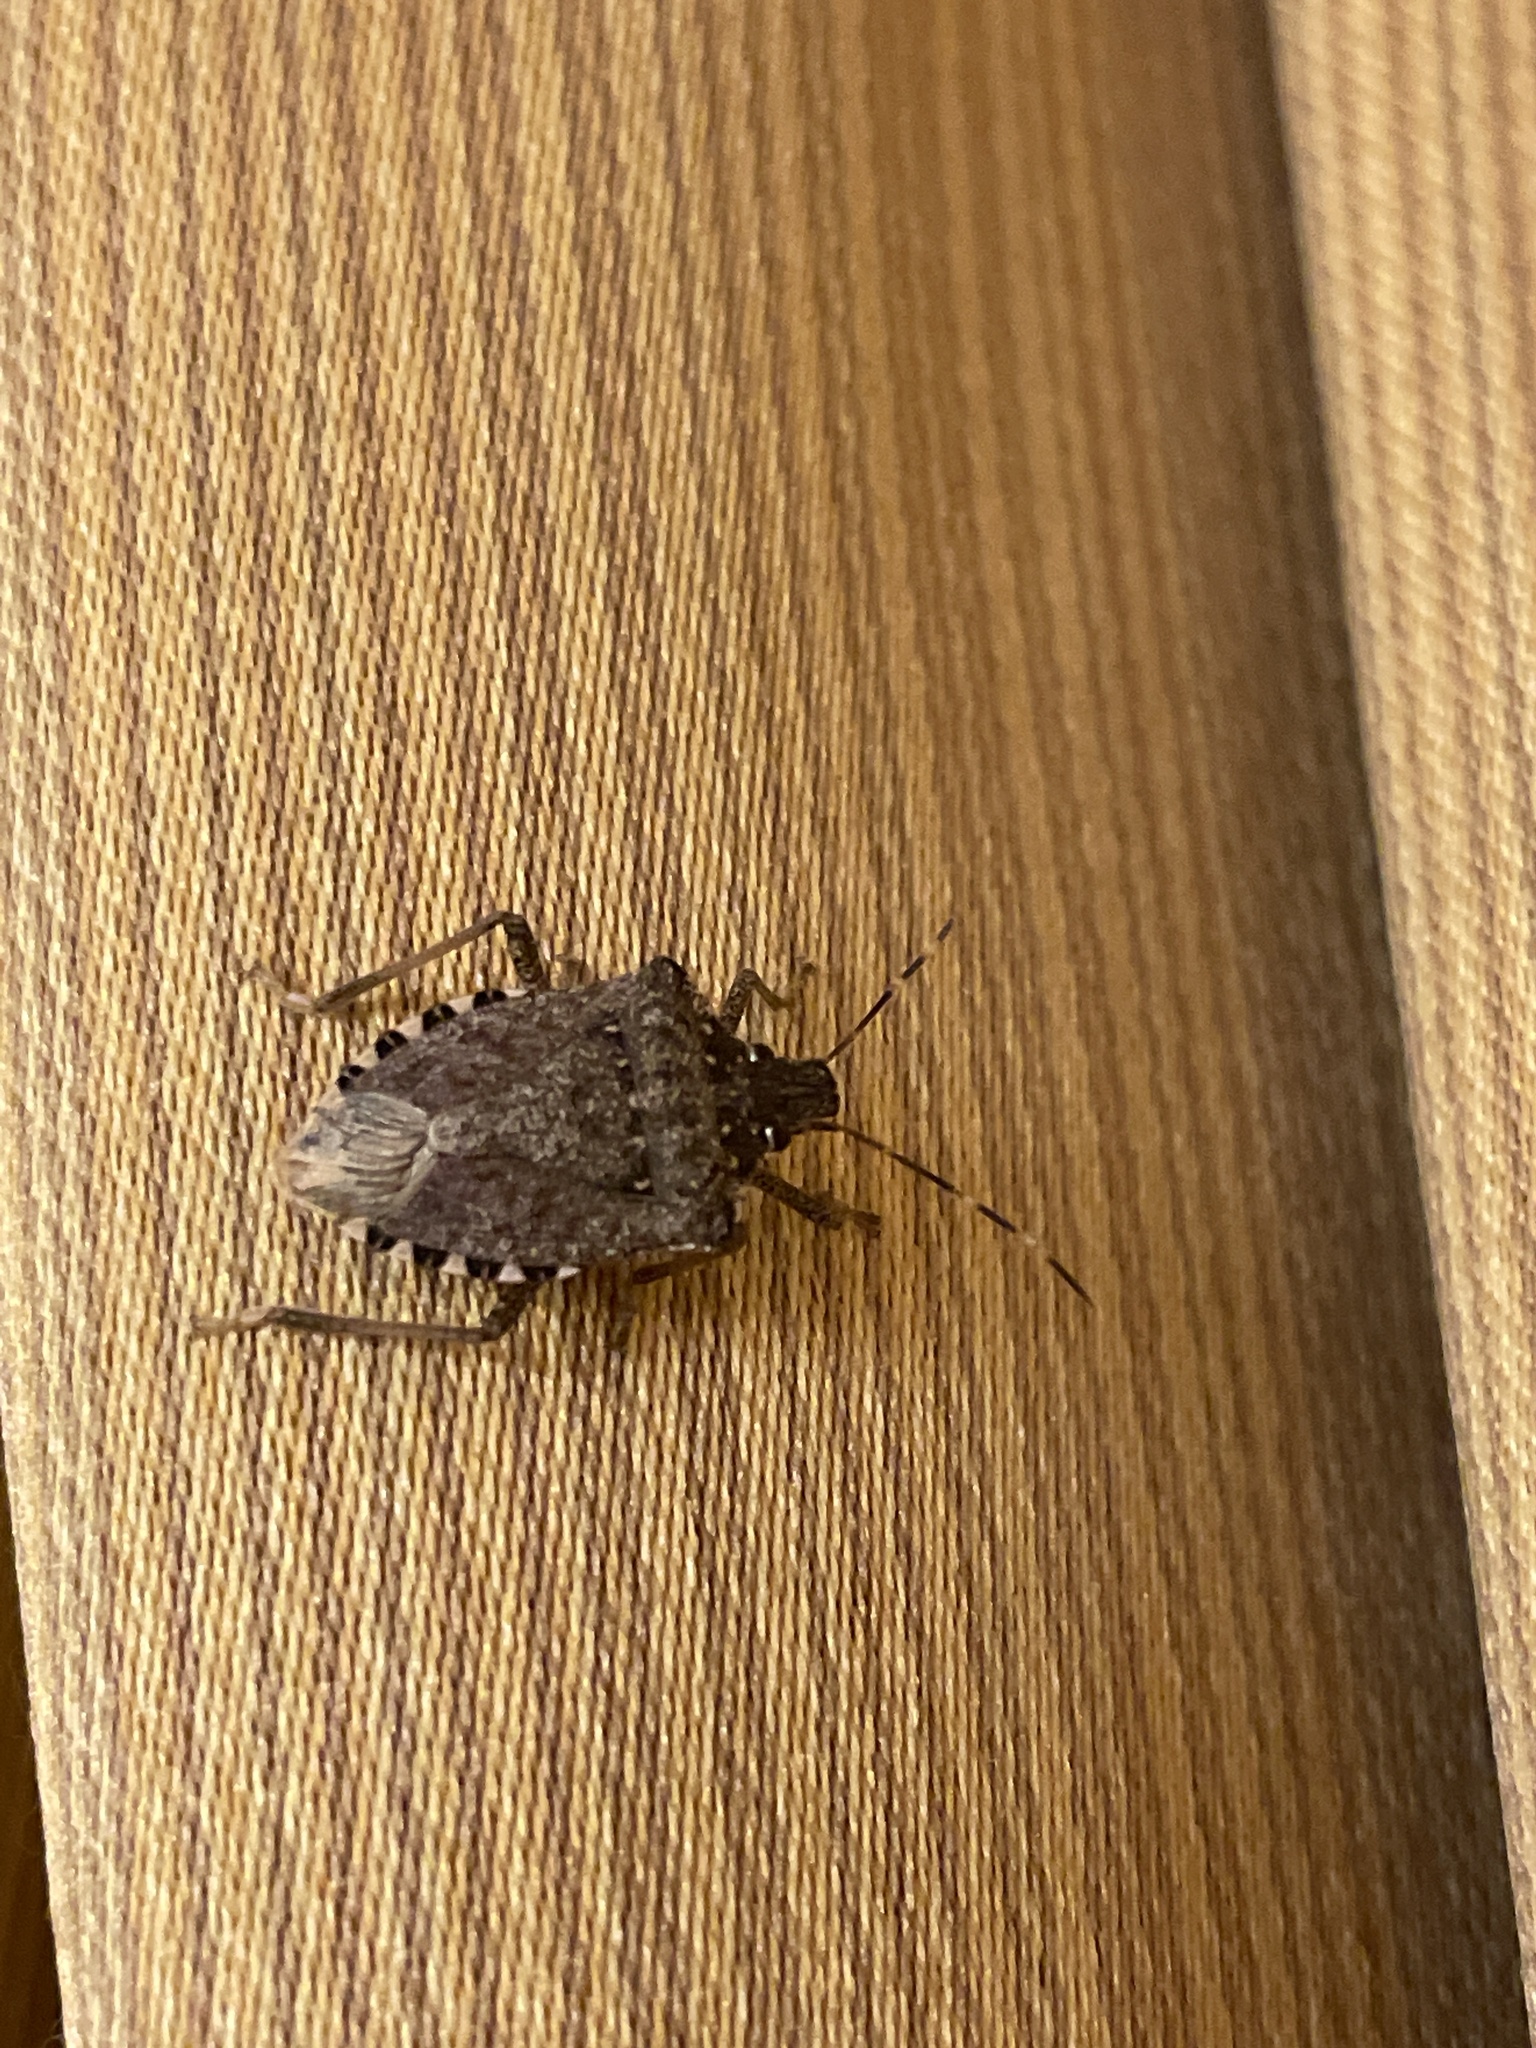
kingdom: Animalia
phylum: Arthropoda
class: Insecta
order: Hemiptera
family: Pentatomidae
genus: Halyomorpha
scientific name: Halyomorpha halys
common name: Brown marmorated stink bug
